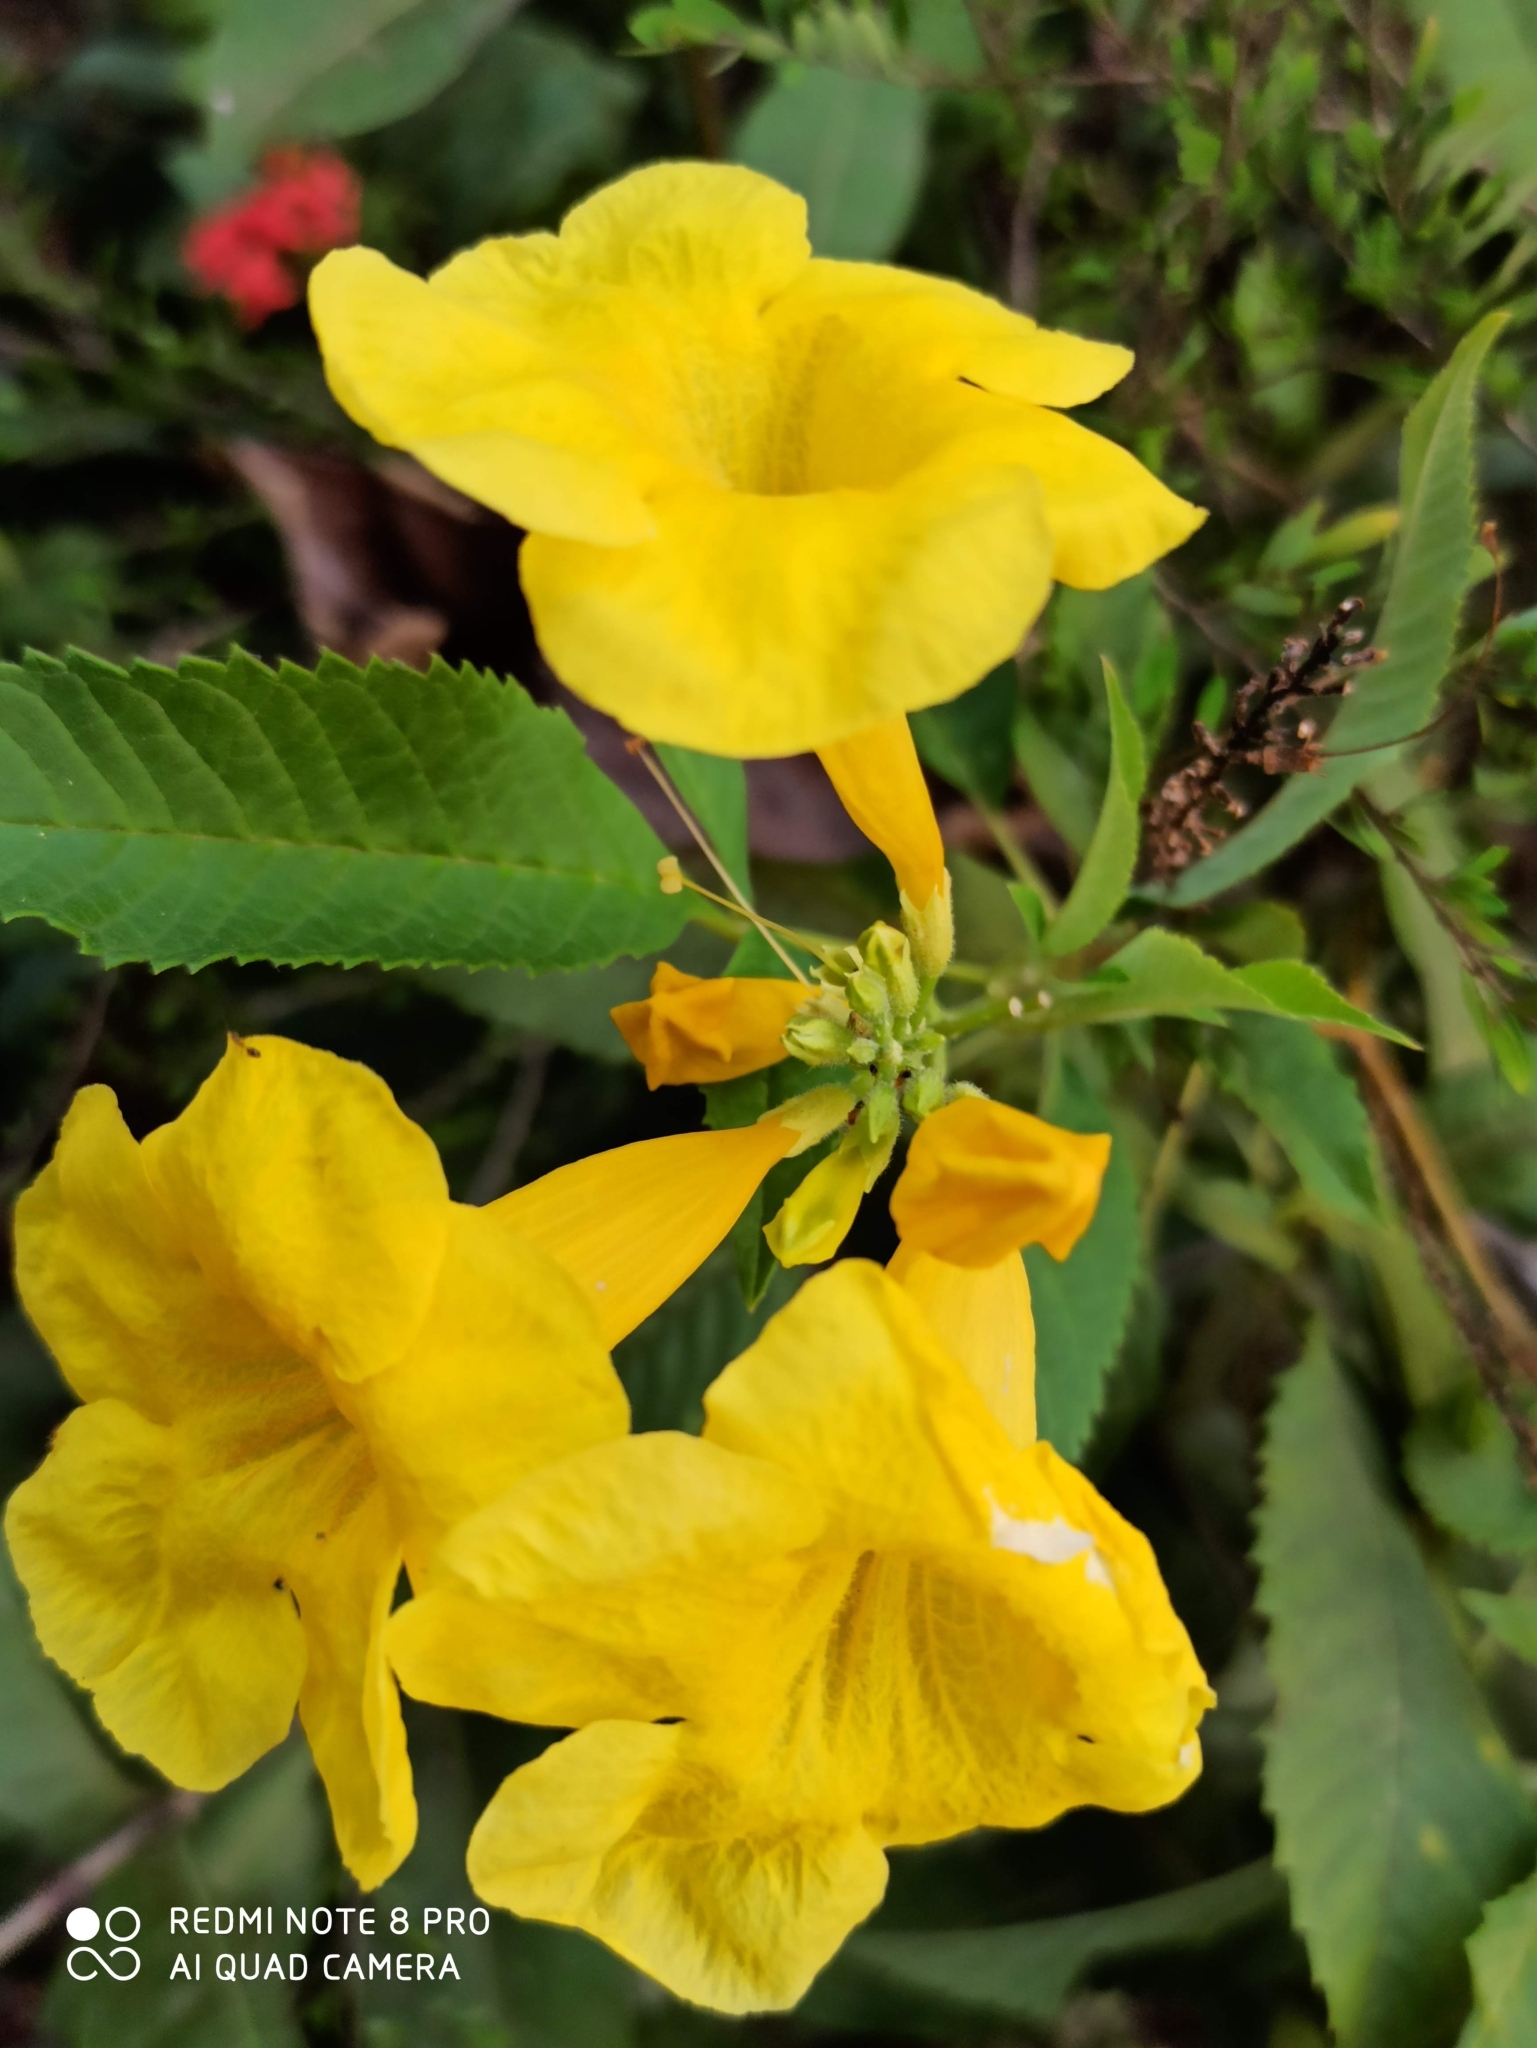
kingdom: Plantae
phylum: Tracheophyta
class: Magnoliopsida
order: Lamiales
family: Bignoniaceae
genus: Tecoma
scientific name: Tecoma stans
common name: Yellow trumpetbush
